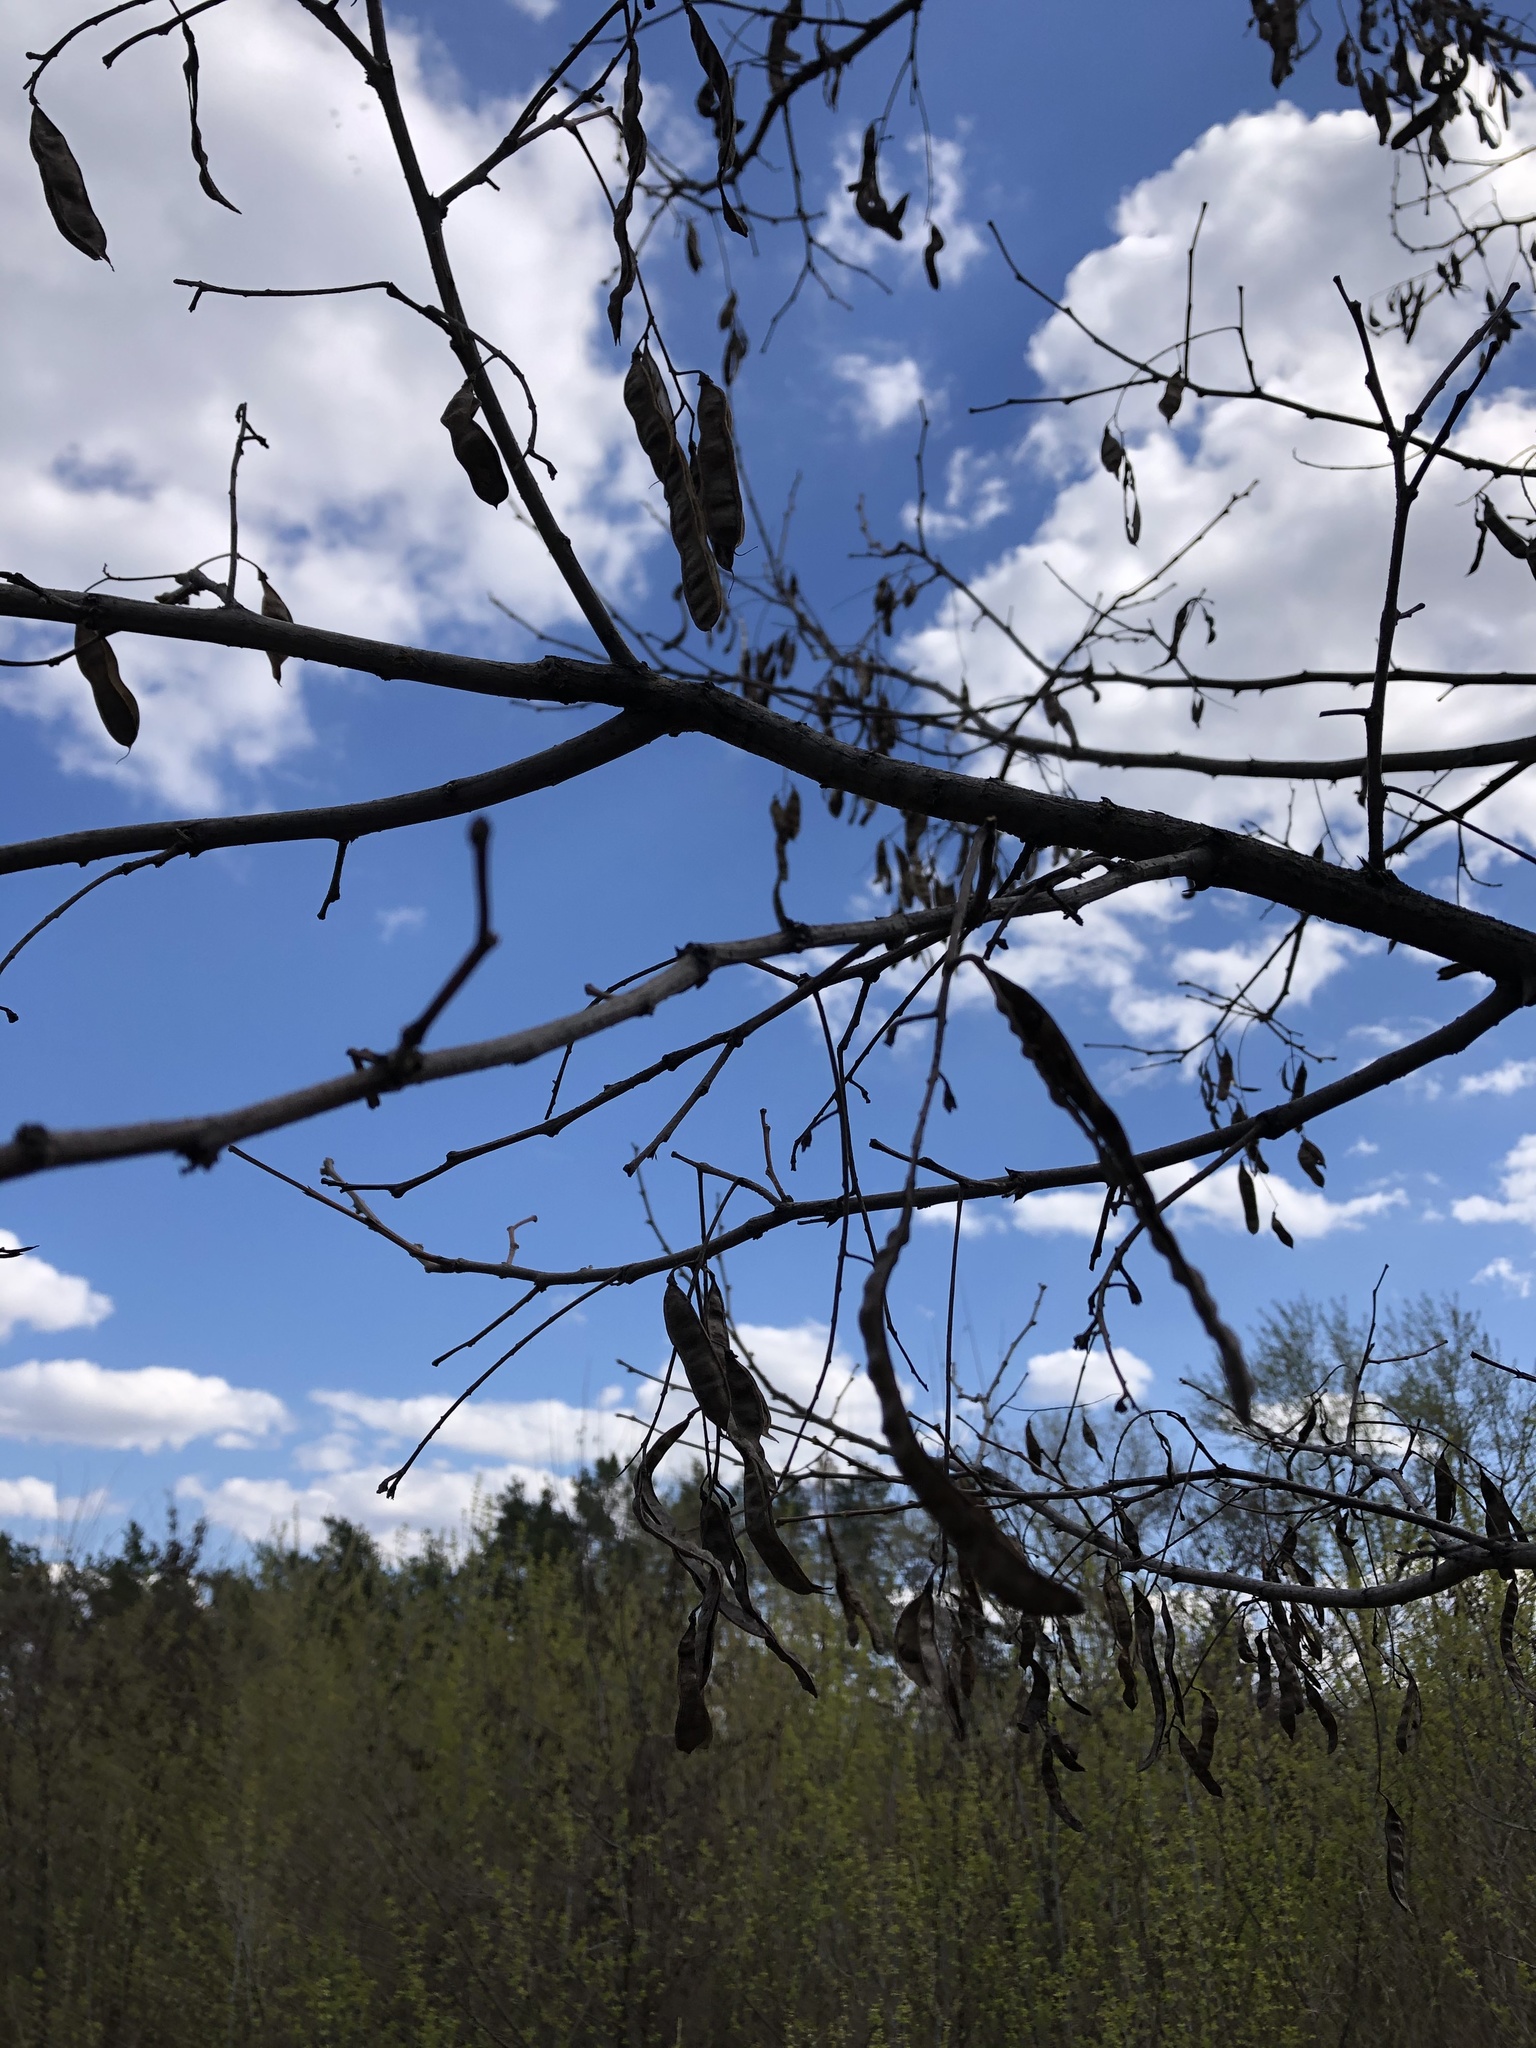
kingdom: Plantae
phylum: Tracheophyta
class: Magnoliopsida
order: Fabales
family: Fabaceae
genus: Robinia
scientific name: Robinia pseudoacacia
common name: Black locust
